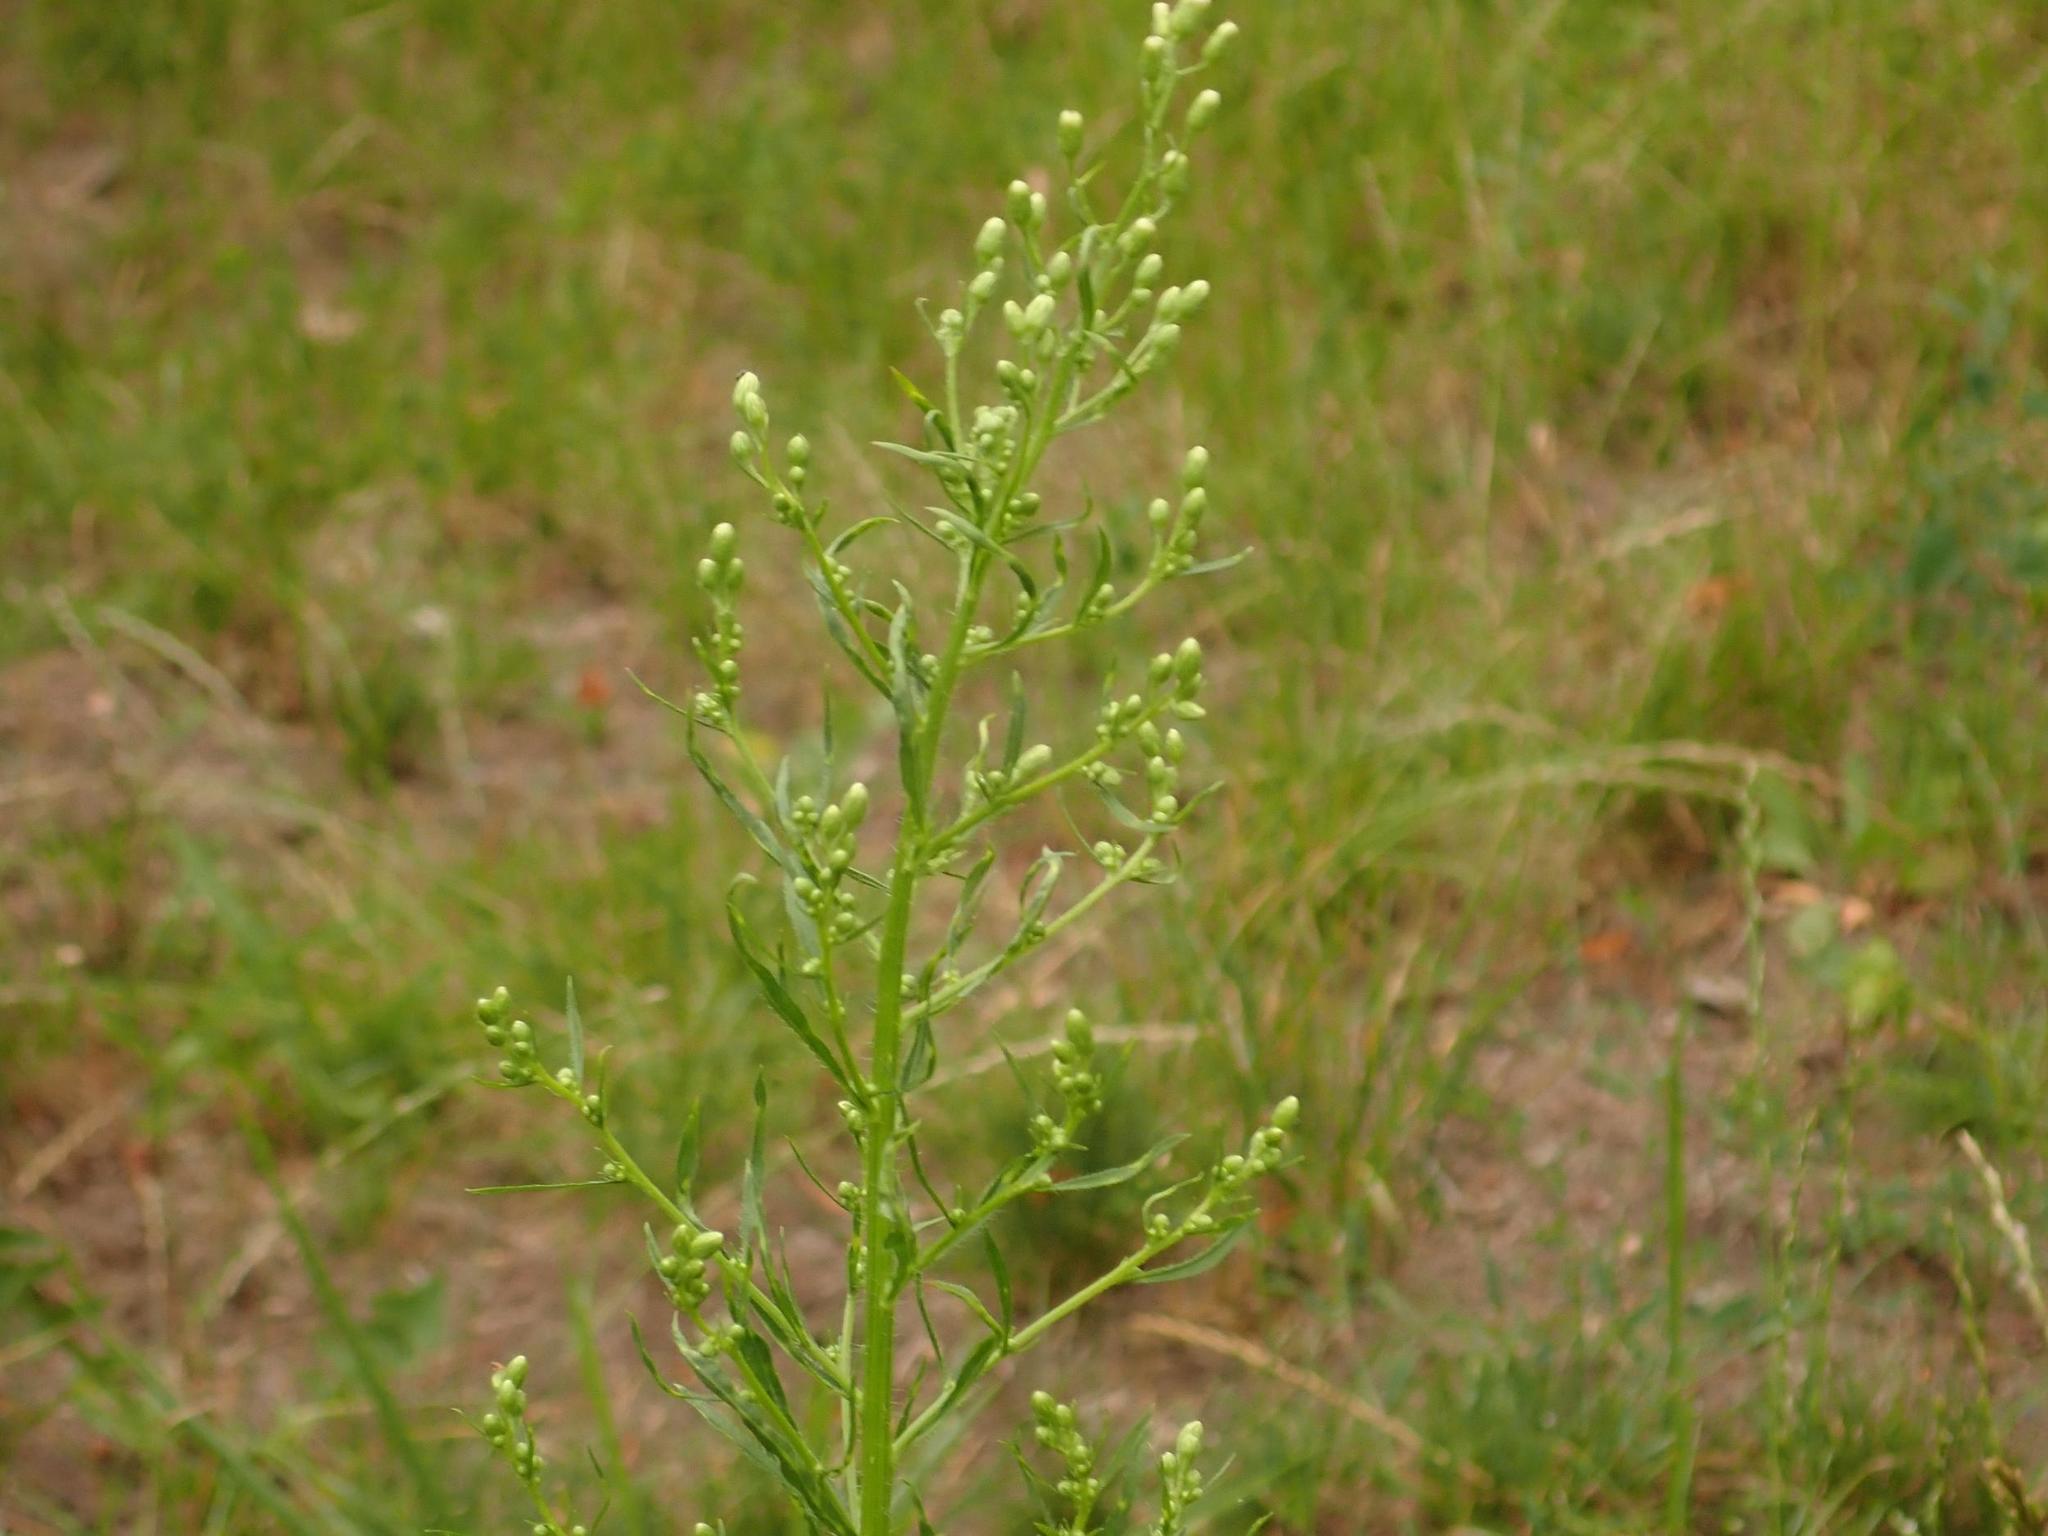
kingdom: Plantae
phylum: Tracheophyta
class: Magnoliopsida
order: Asterales
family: Asteraceae
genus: Erigeron
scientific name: Erigeron canadensis
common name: Canadian fleabane
